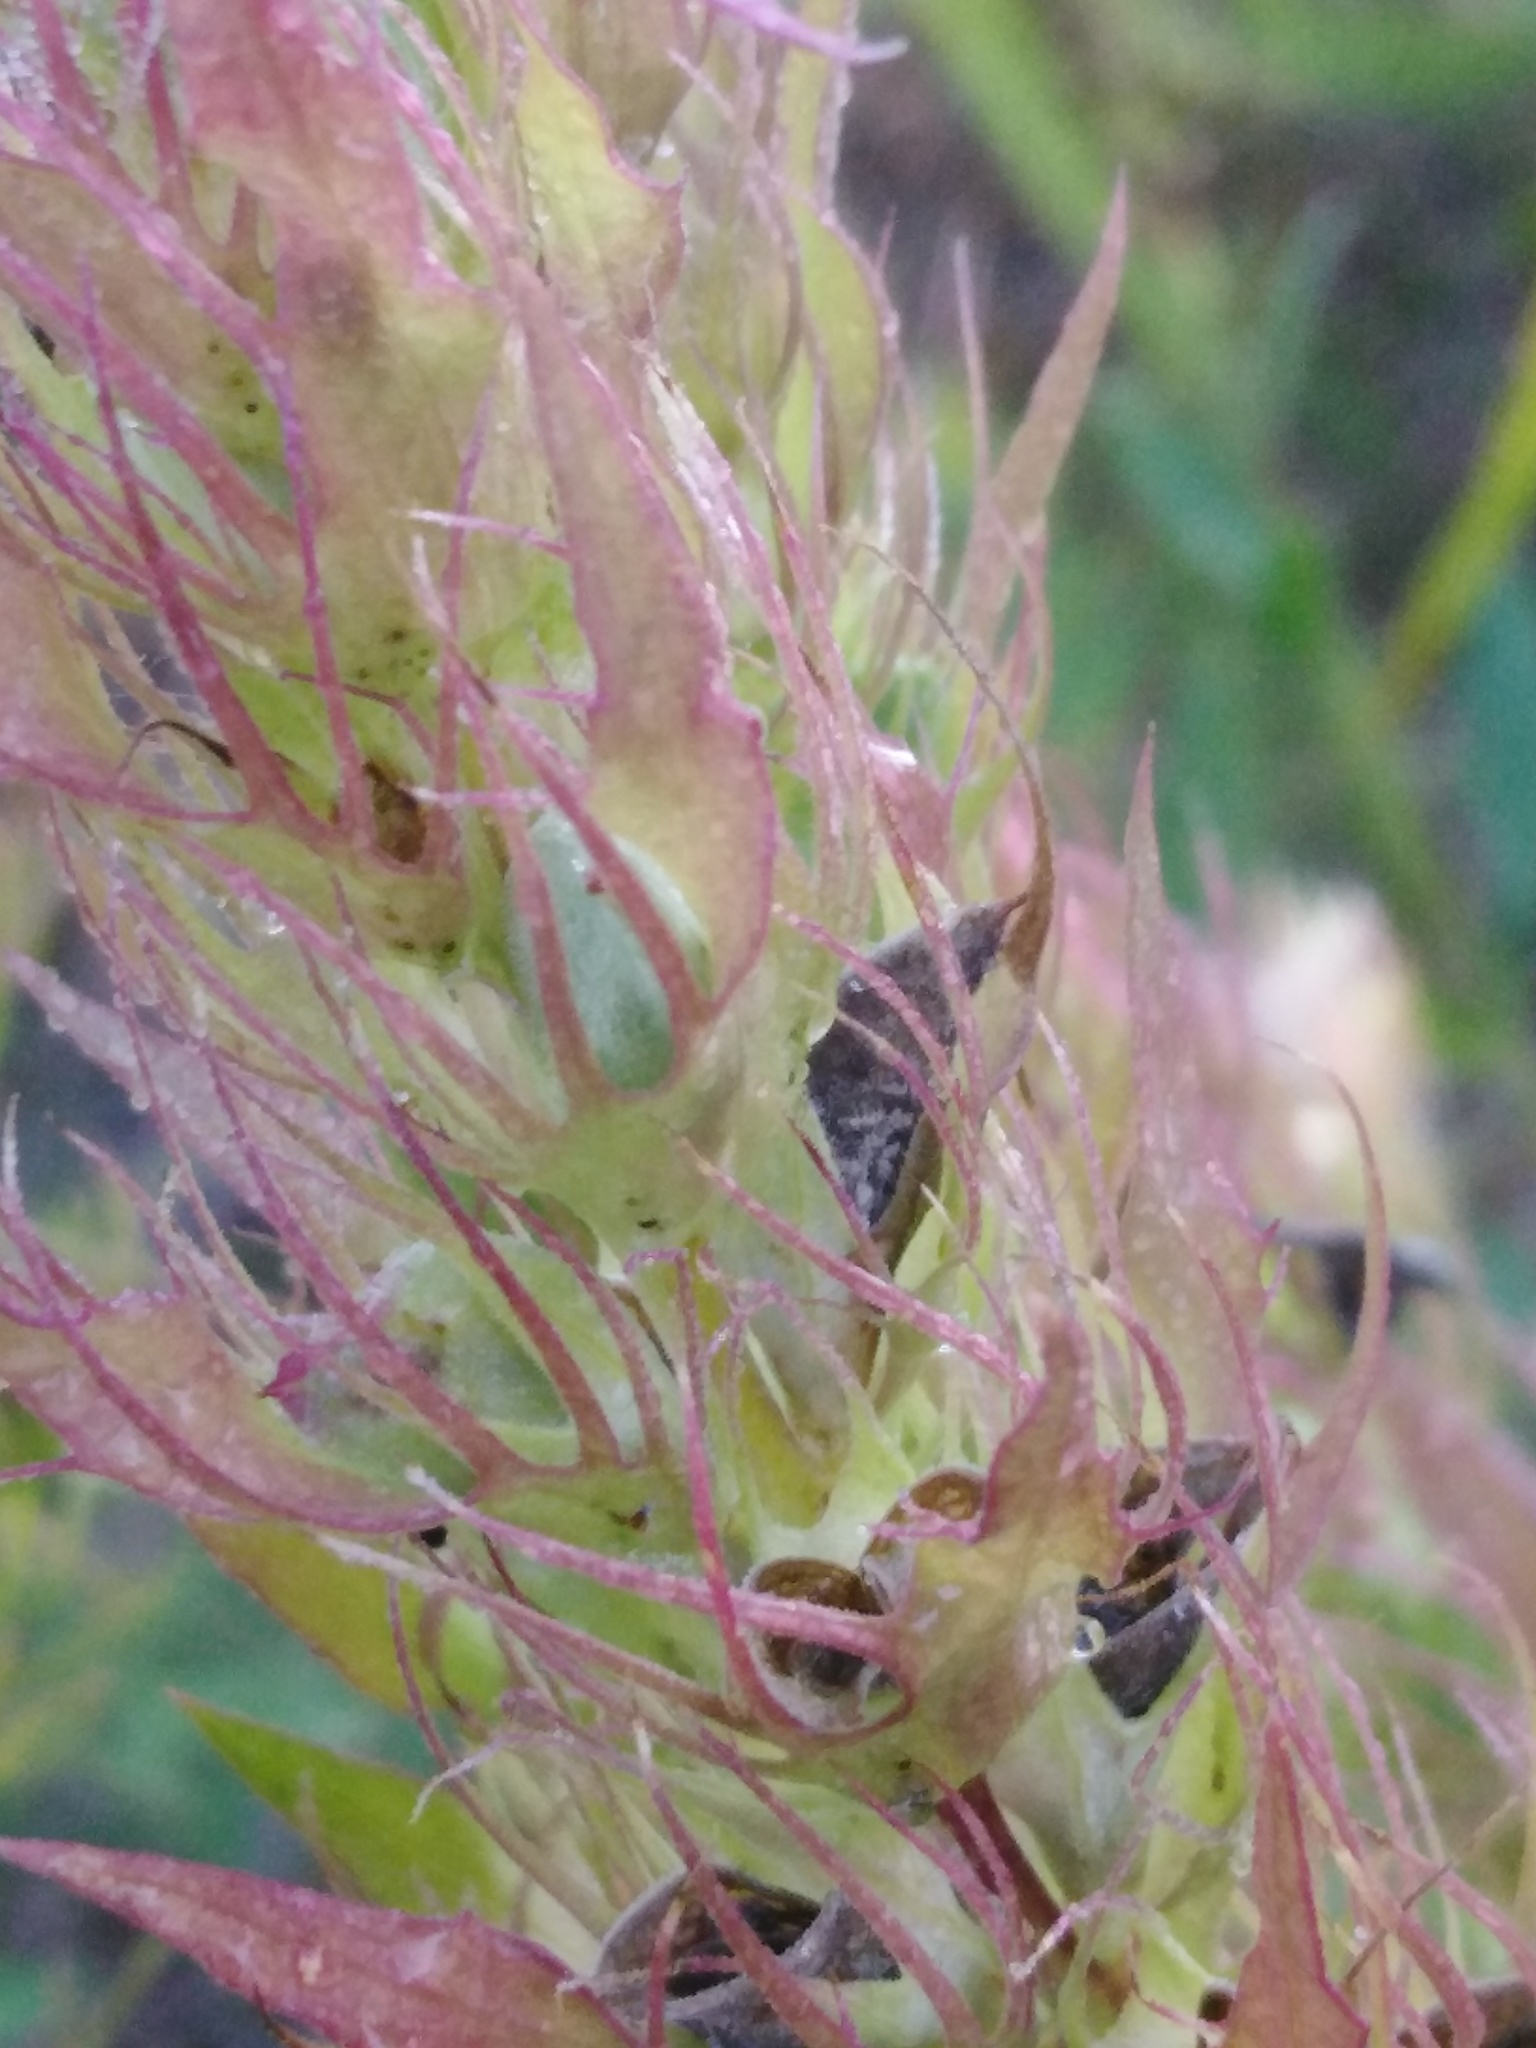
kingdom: Plantae
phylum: Tracheophyta
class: Magnoliopsida
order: Lamiales
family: Orobanchaceae
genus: Melampyrum
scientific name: Melampyrum arvense
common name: Field cow-wheat
